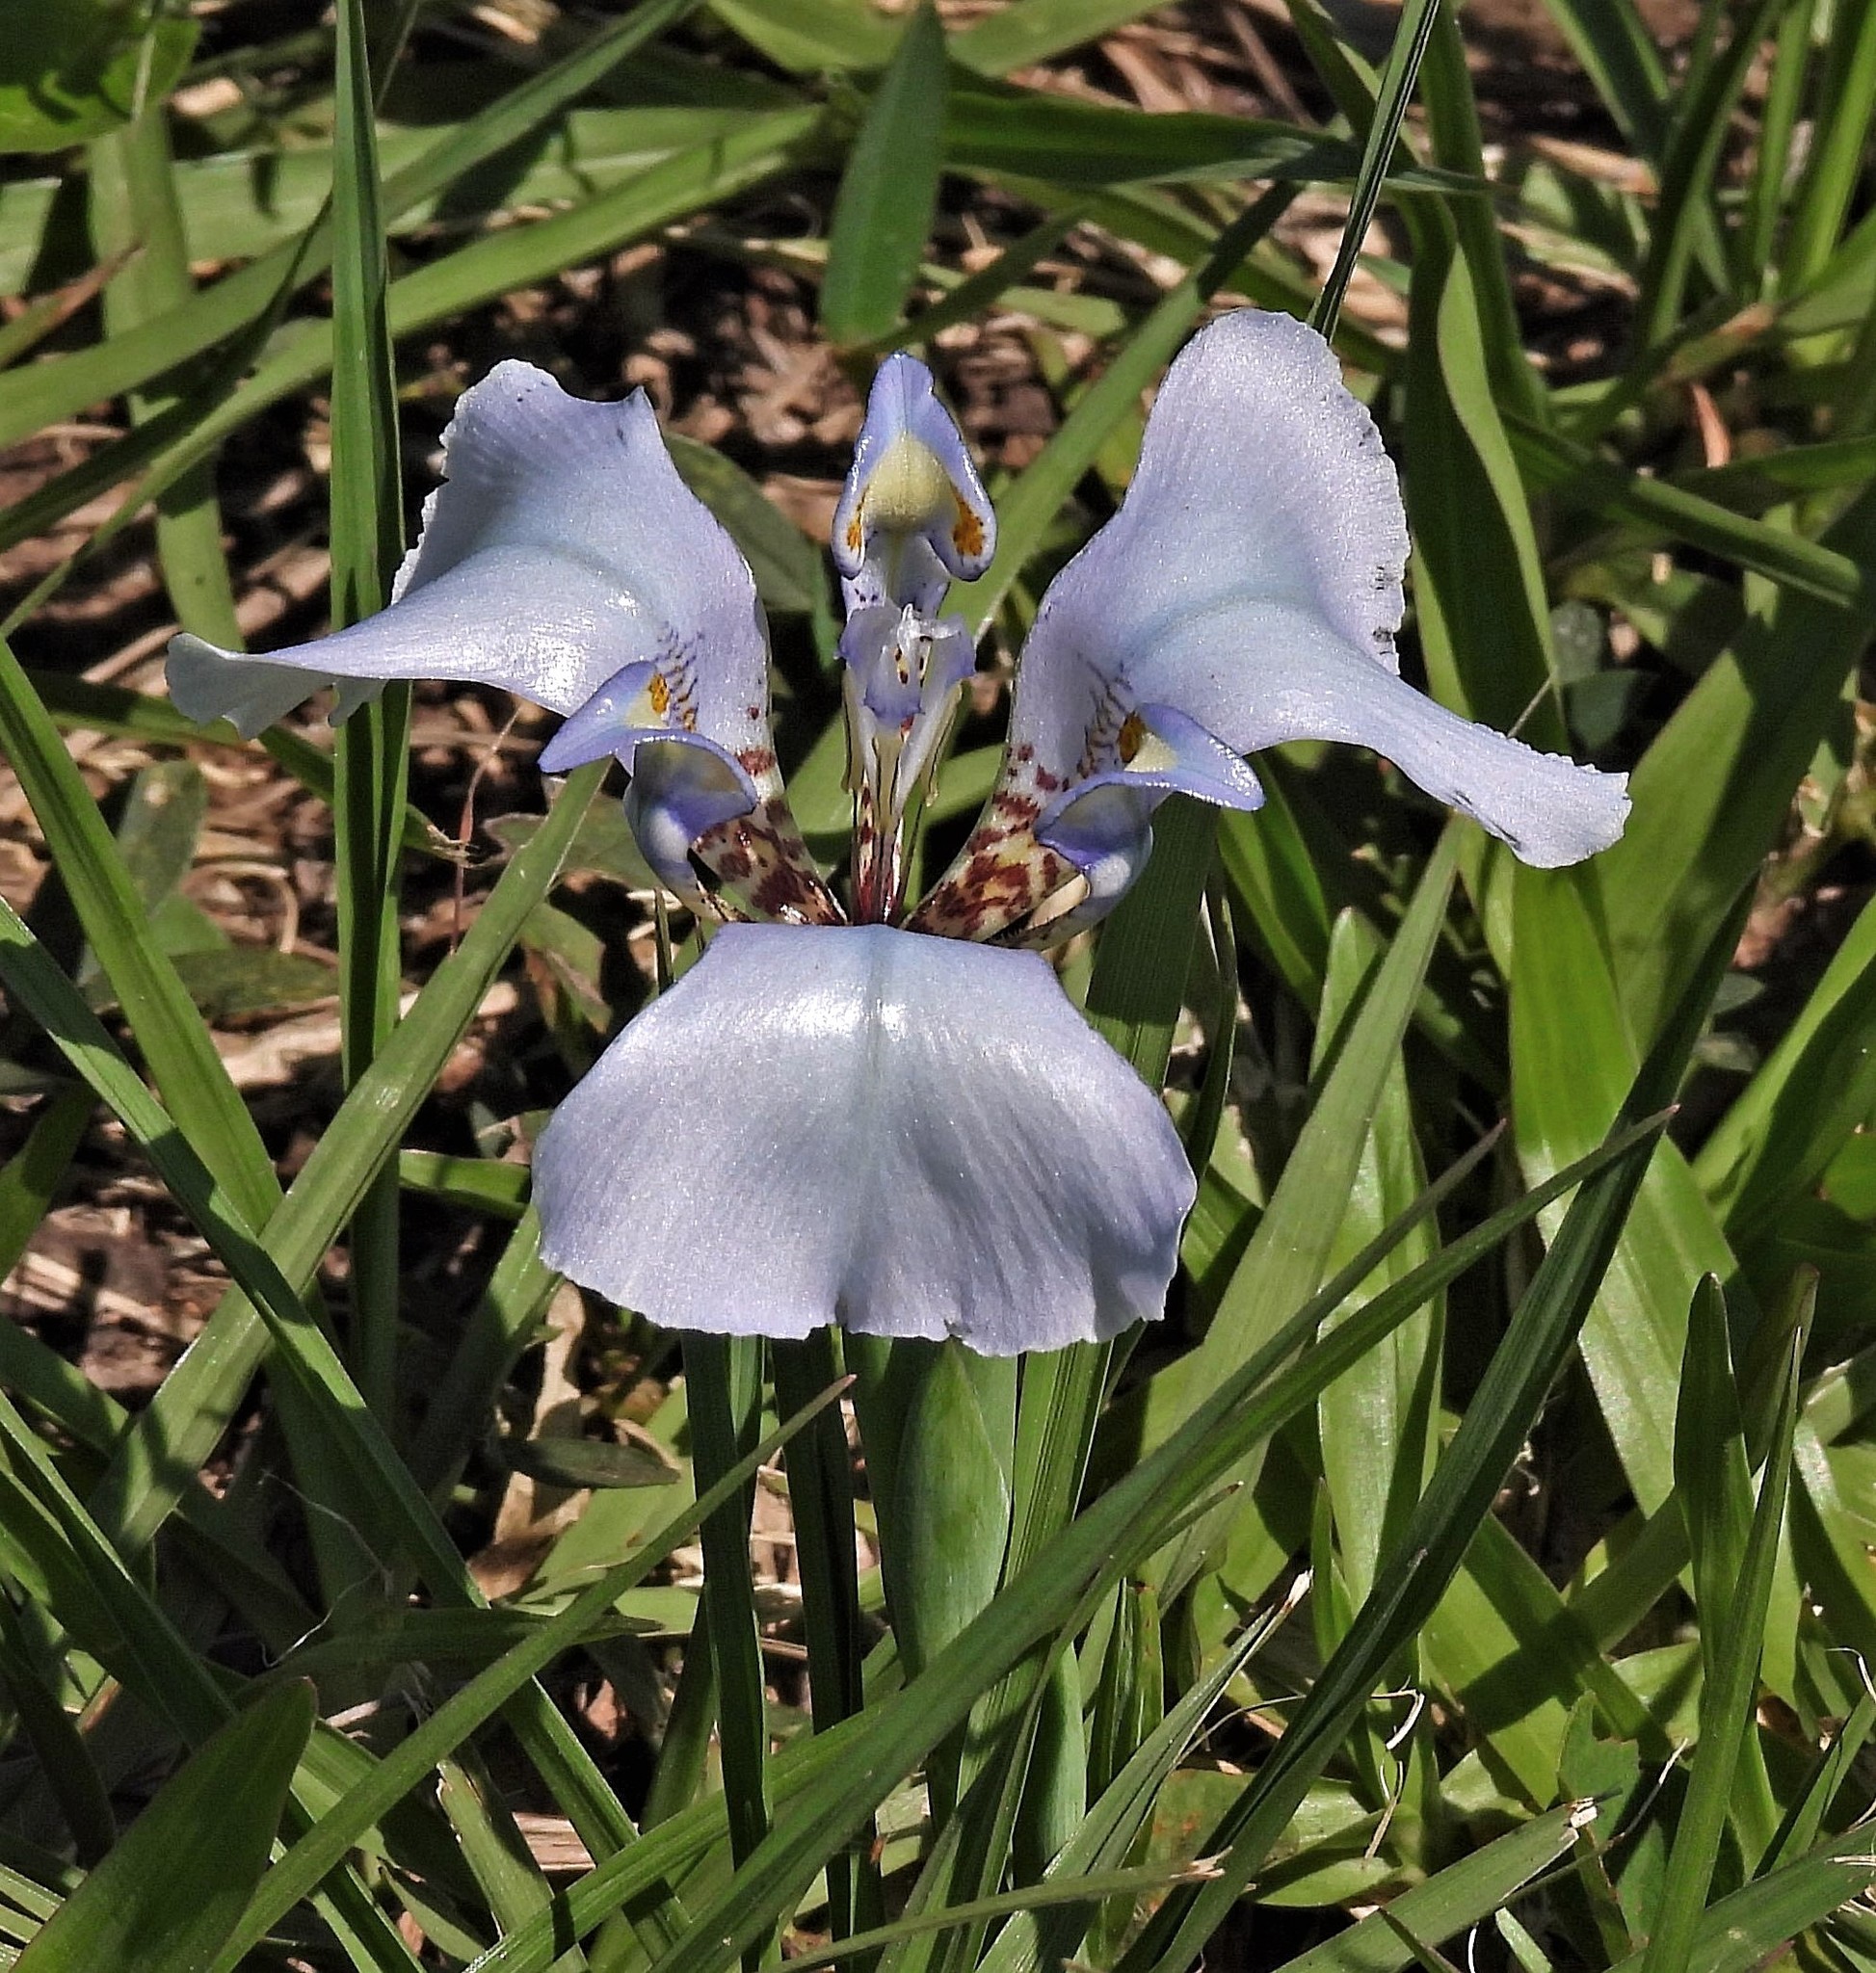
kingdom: Plantae
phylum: Tracheophyta
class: Liliopsida
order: Asparagales
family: Iridaceae
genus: Cypella
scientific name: Cypella hauthalii
